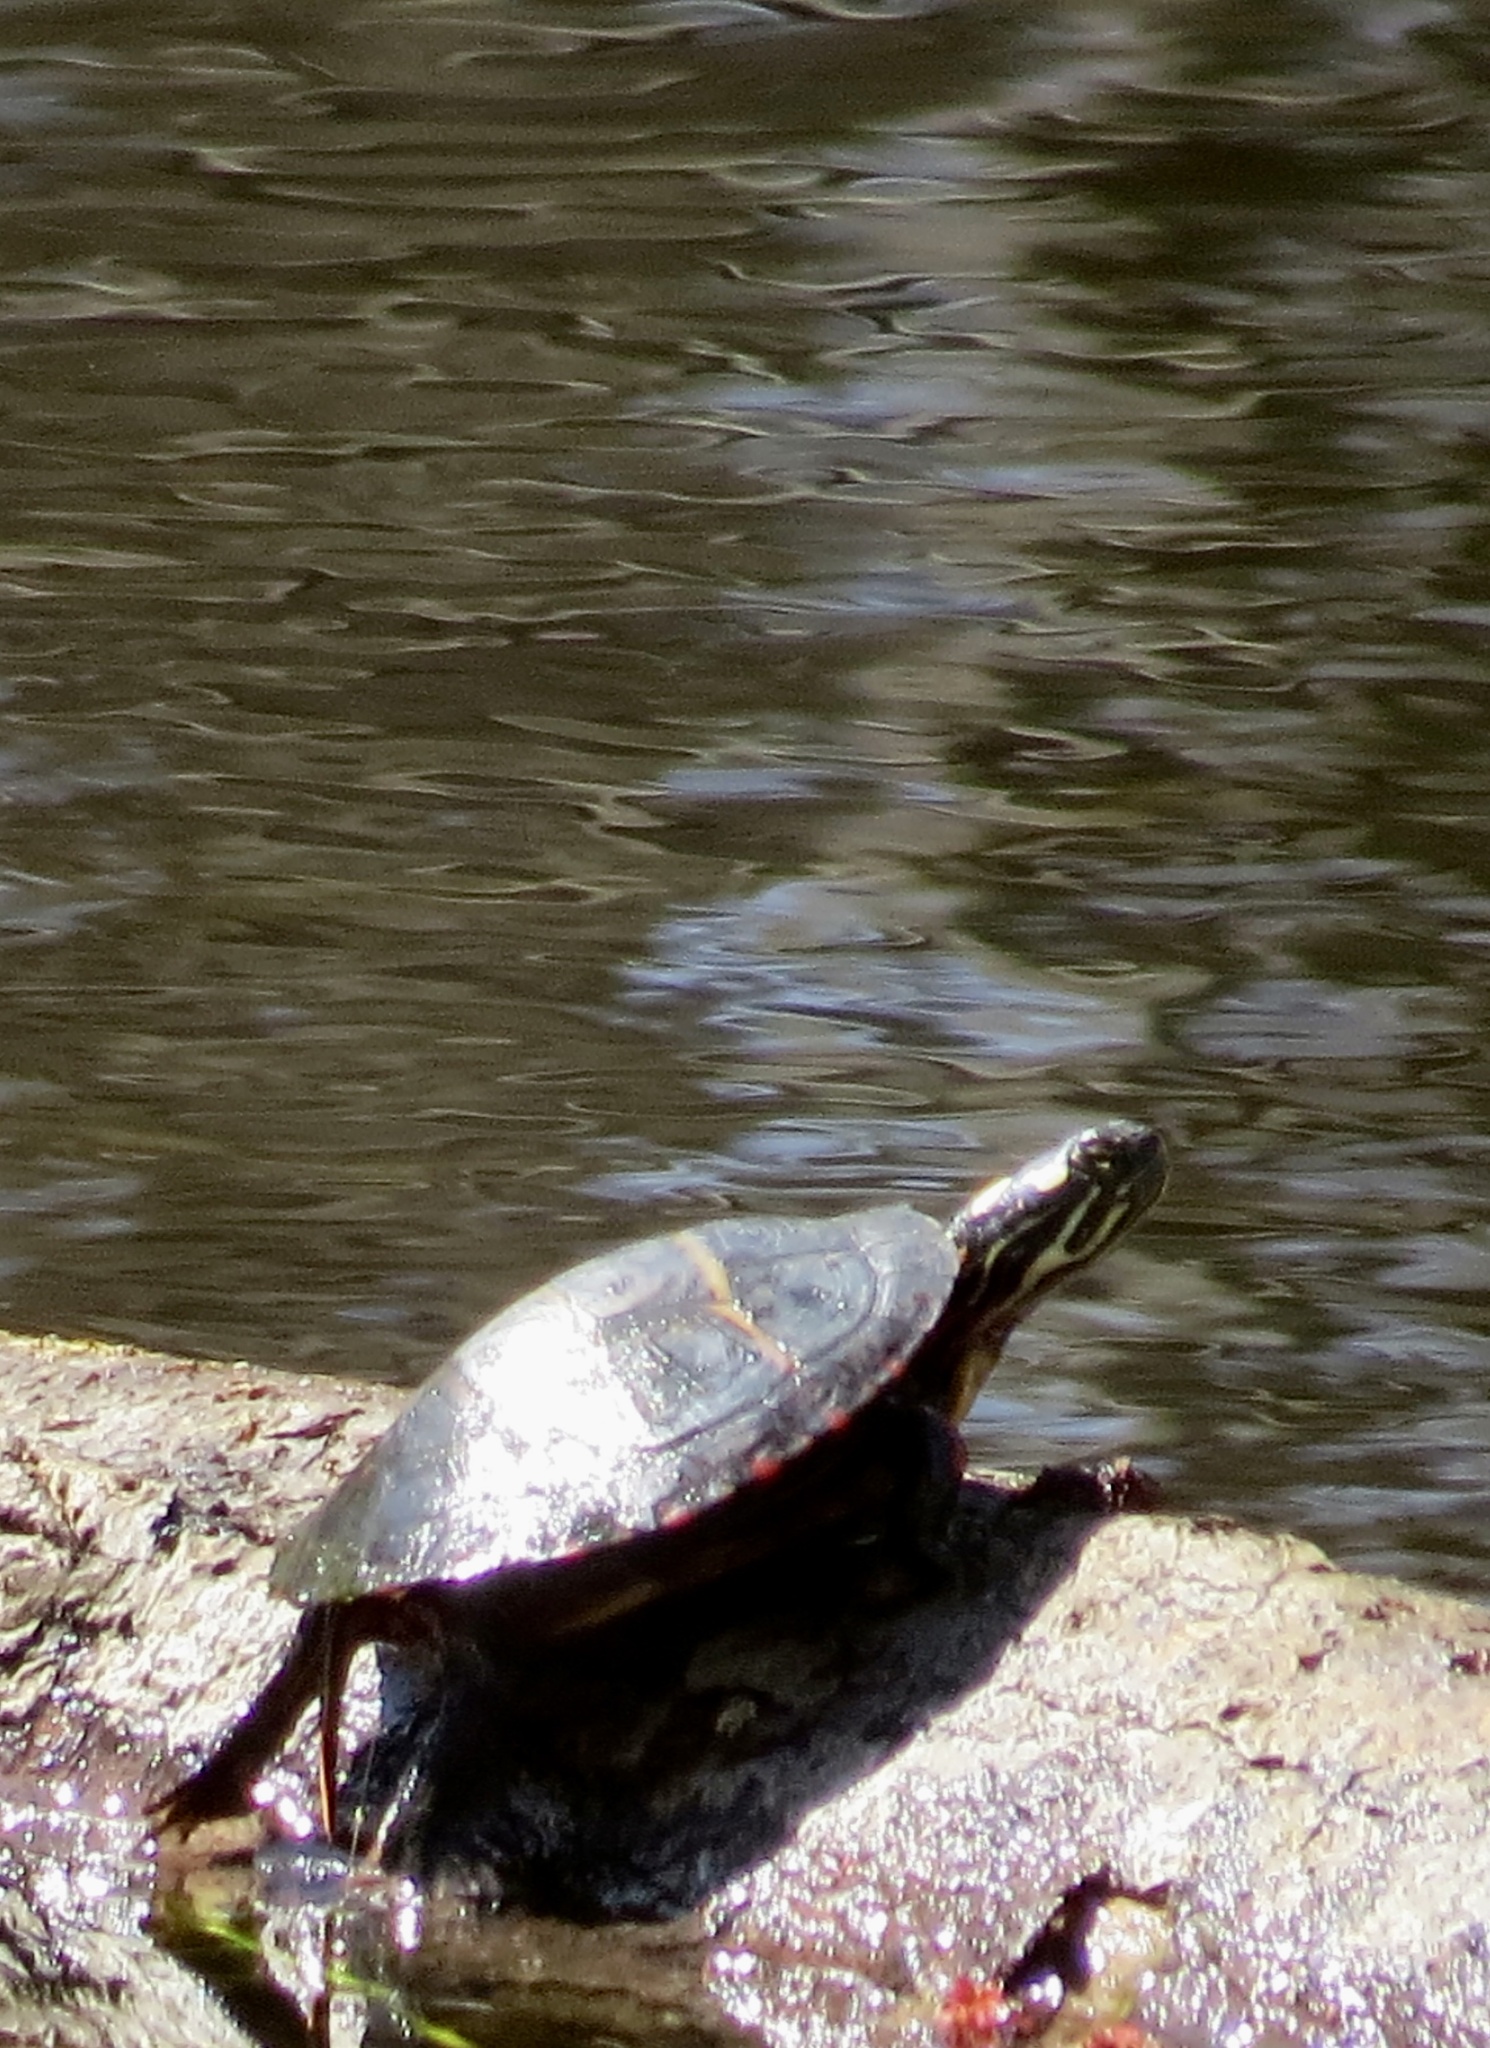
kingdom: Animalia
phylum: Chordata
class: Testudines
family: Emydidae
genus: Chrysemys
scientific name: Chrysemys picta
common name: Painted turtle
